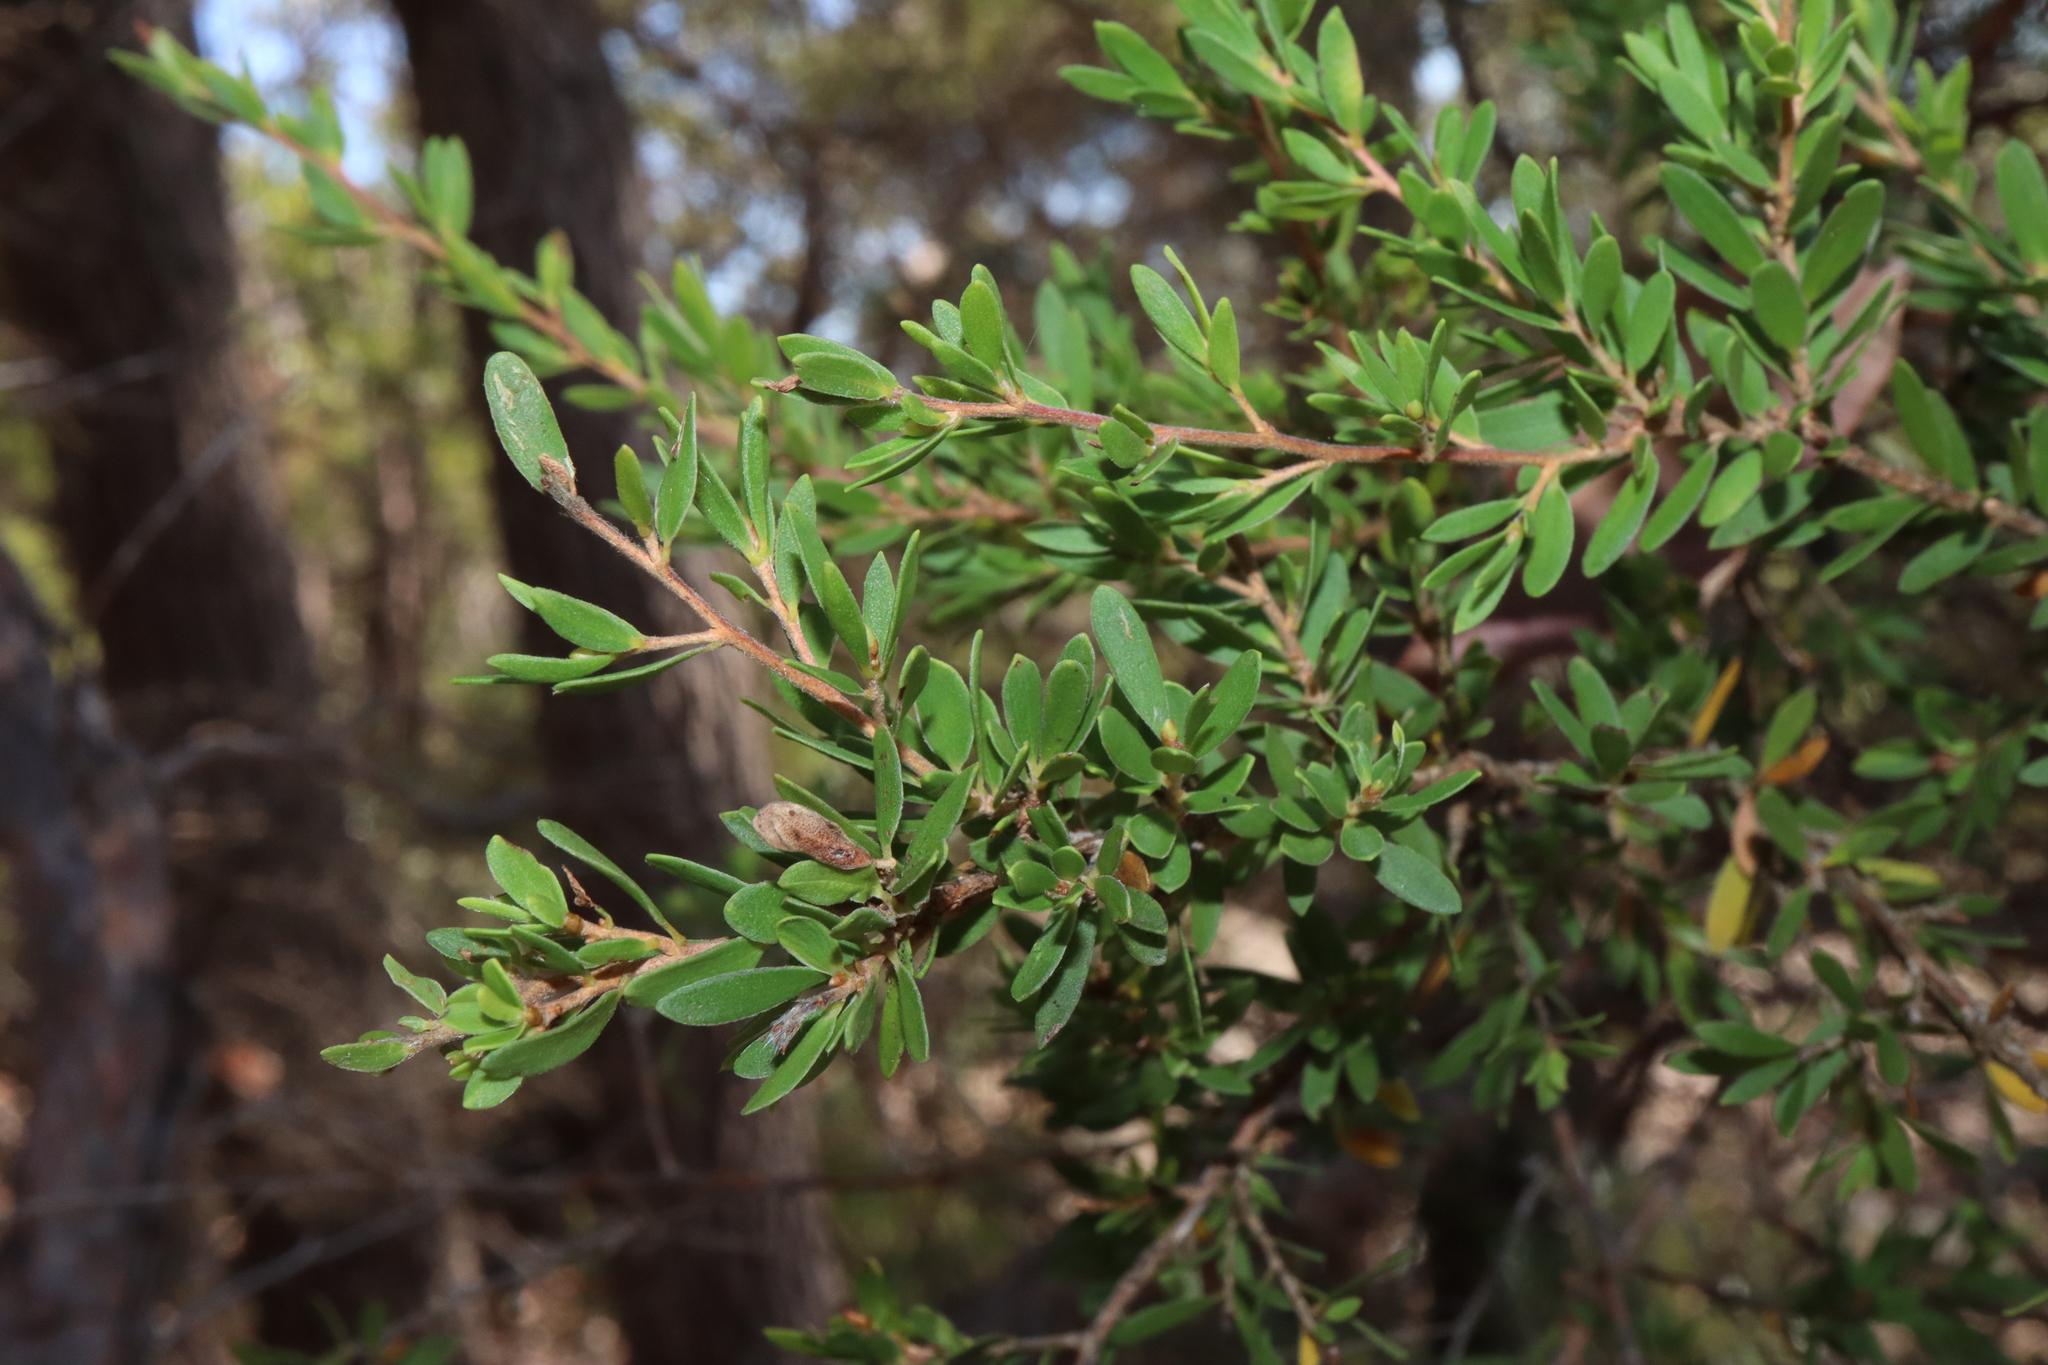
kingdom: Plantae
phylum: Tracheophyta
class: Magnoliopsida
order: Myrtales
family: Myrtaceae
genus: Leptospermum
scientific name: Leptospermum trinervium
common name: Flaky-barked tea-tree
